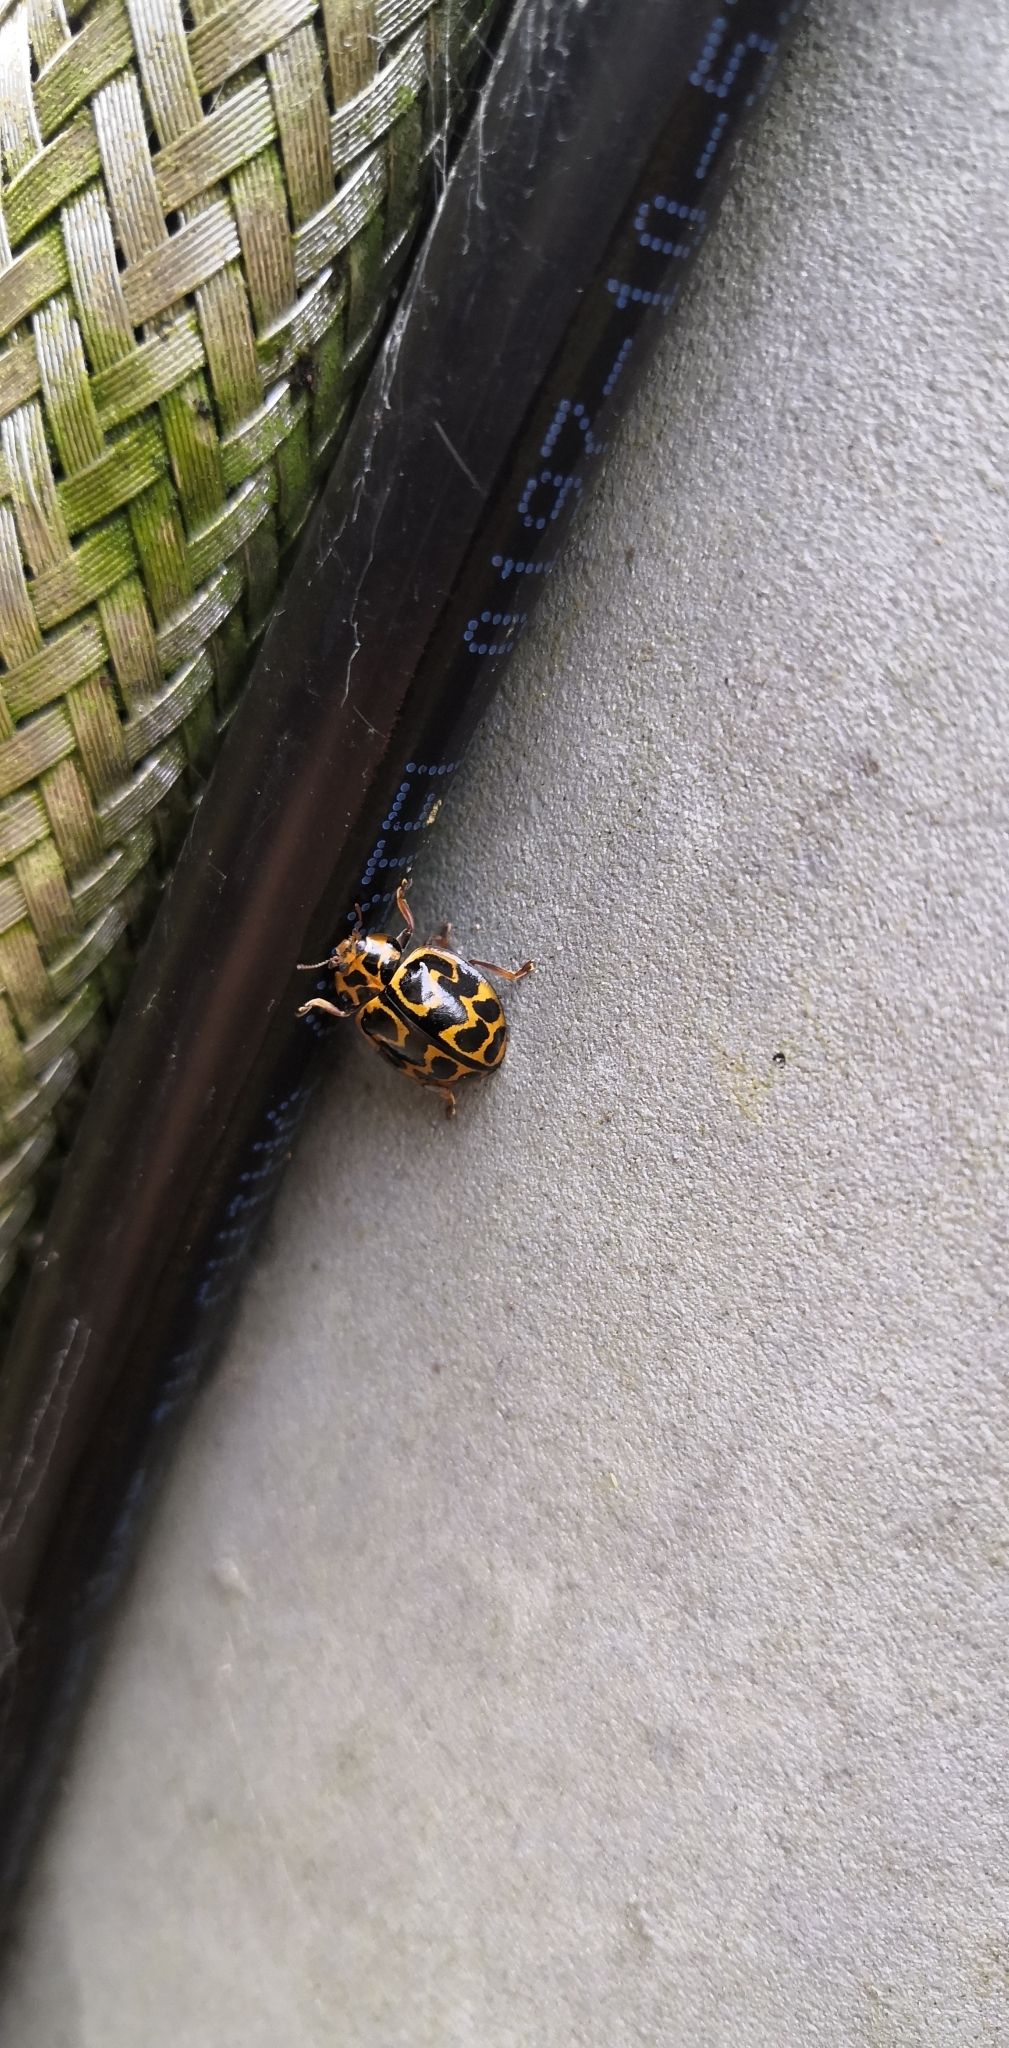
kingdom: Animalia
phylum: Arthropoda
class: Insecta
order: Coleoptera
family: Coccinellidae
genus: Cleobora
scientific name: Cleobora
